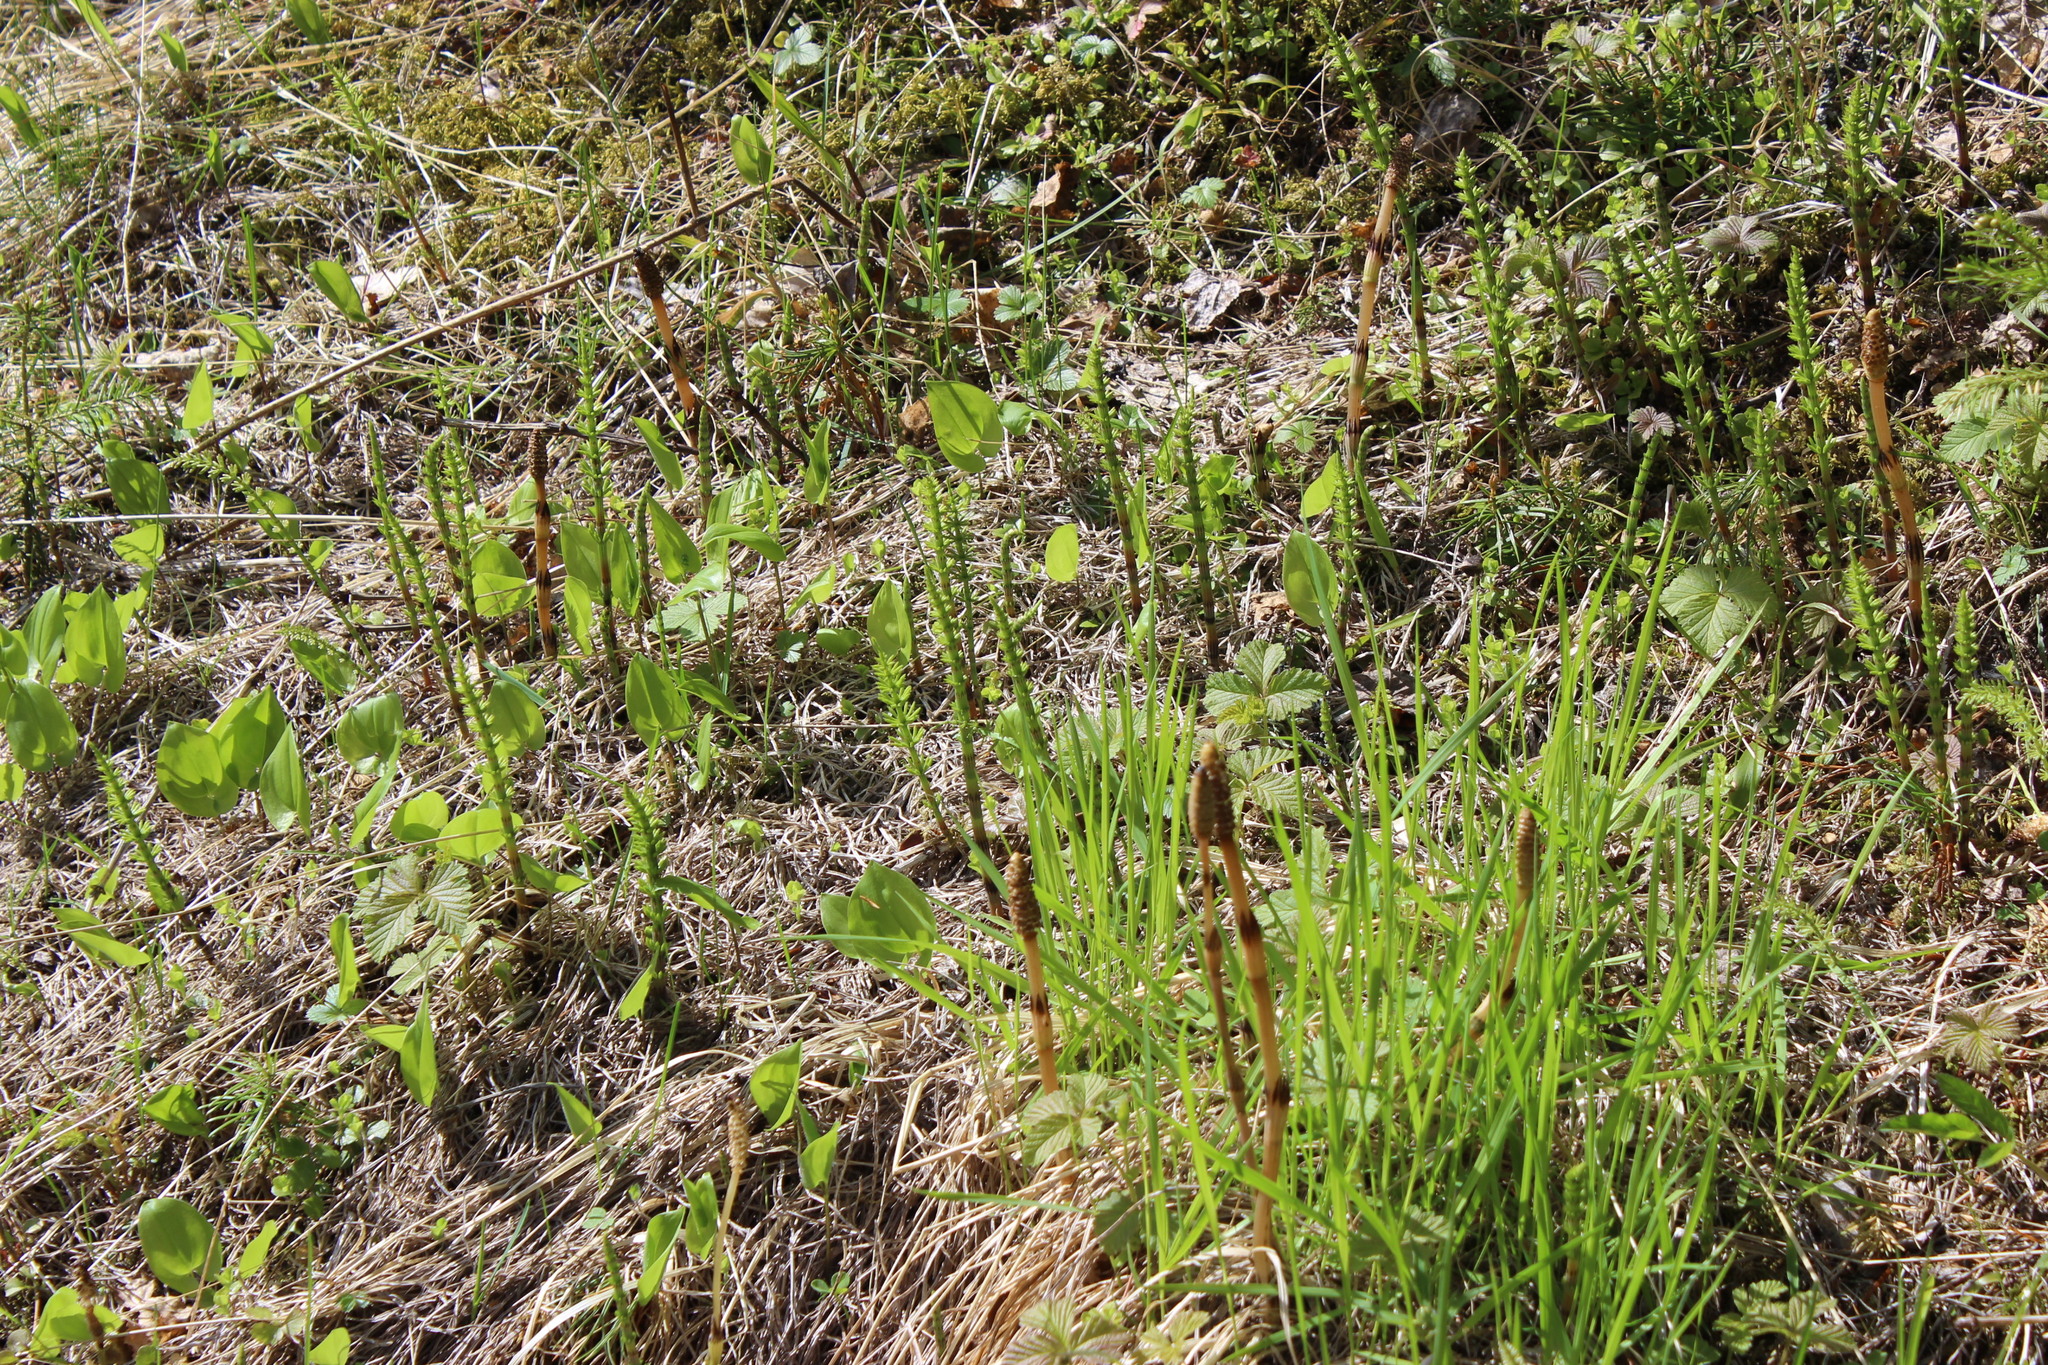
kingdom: Plantae
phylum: Tracheophyta
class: Polypodiopsida
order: Equisetales
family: Equisetaceae
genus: Equisetum
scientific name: Equisetum arvense
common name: Field horsetail
